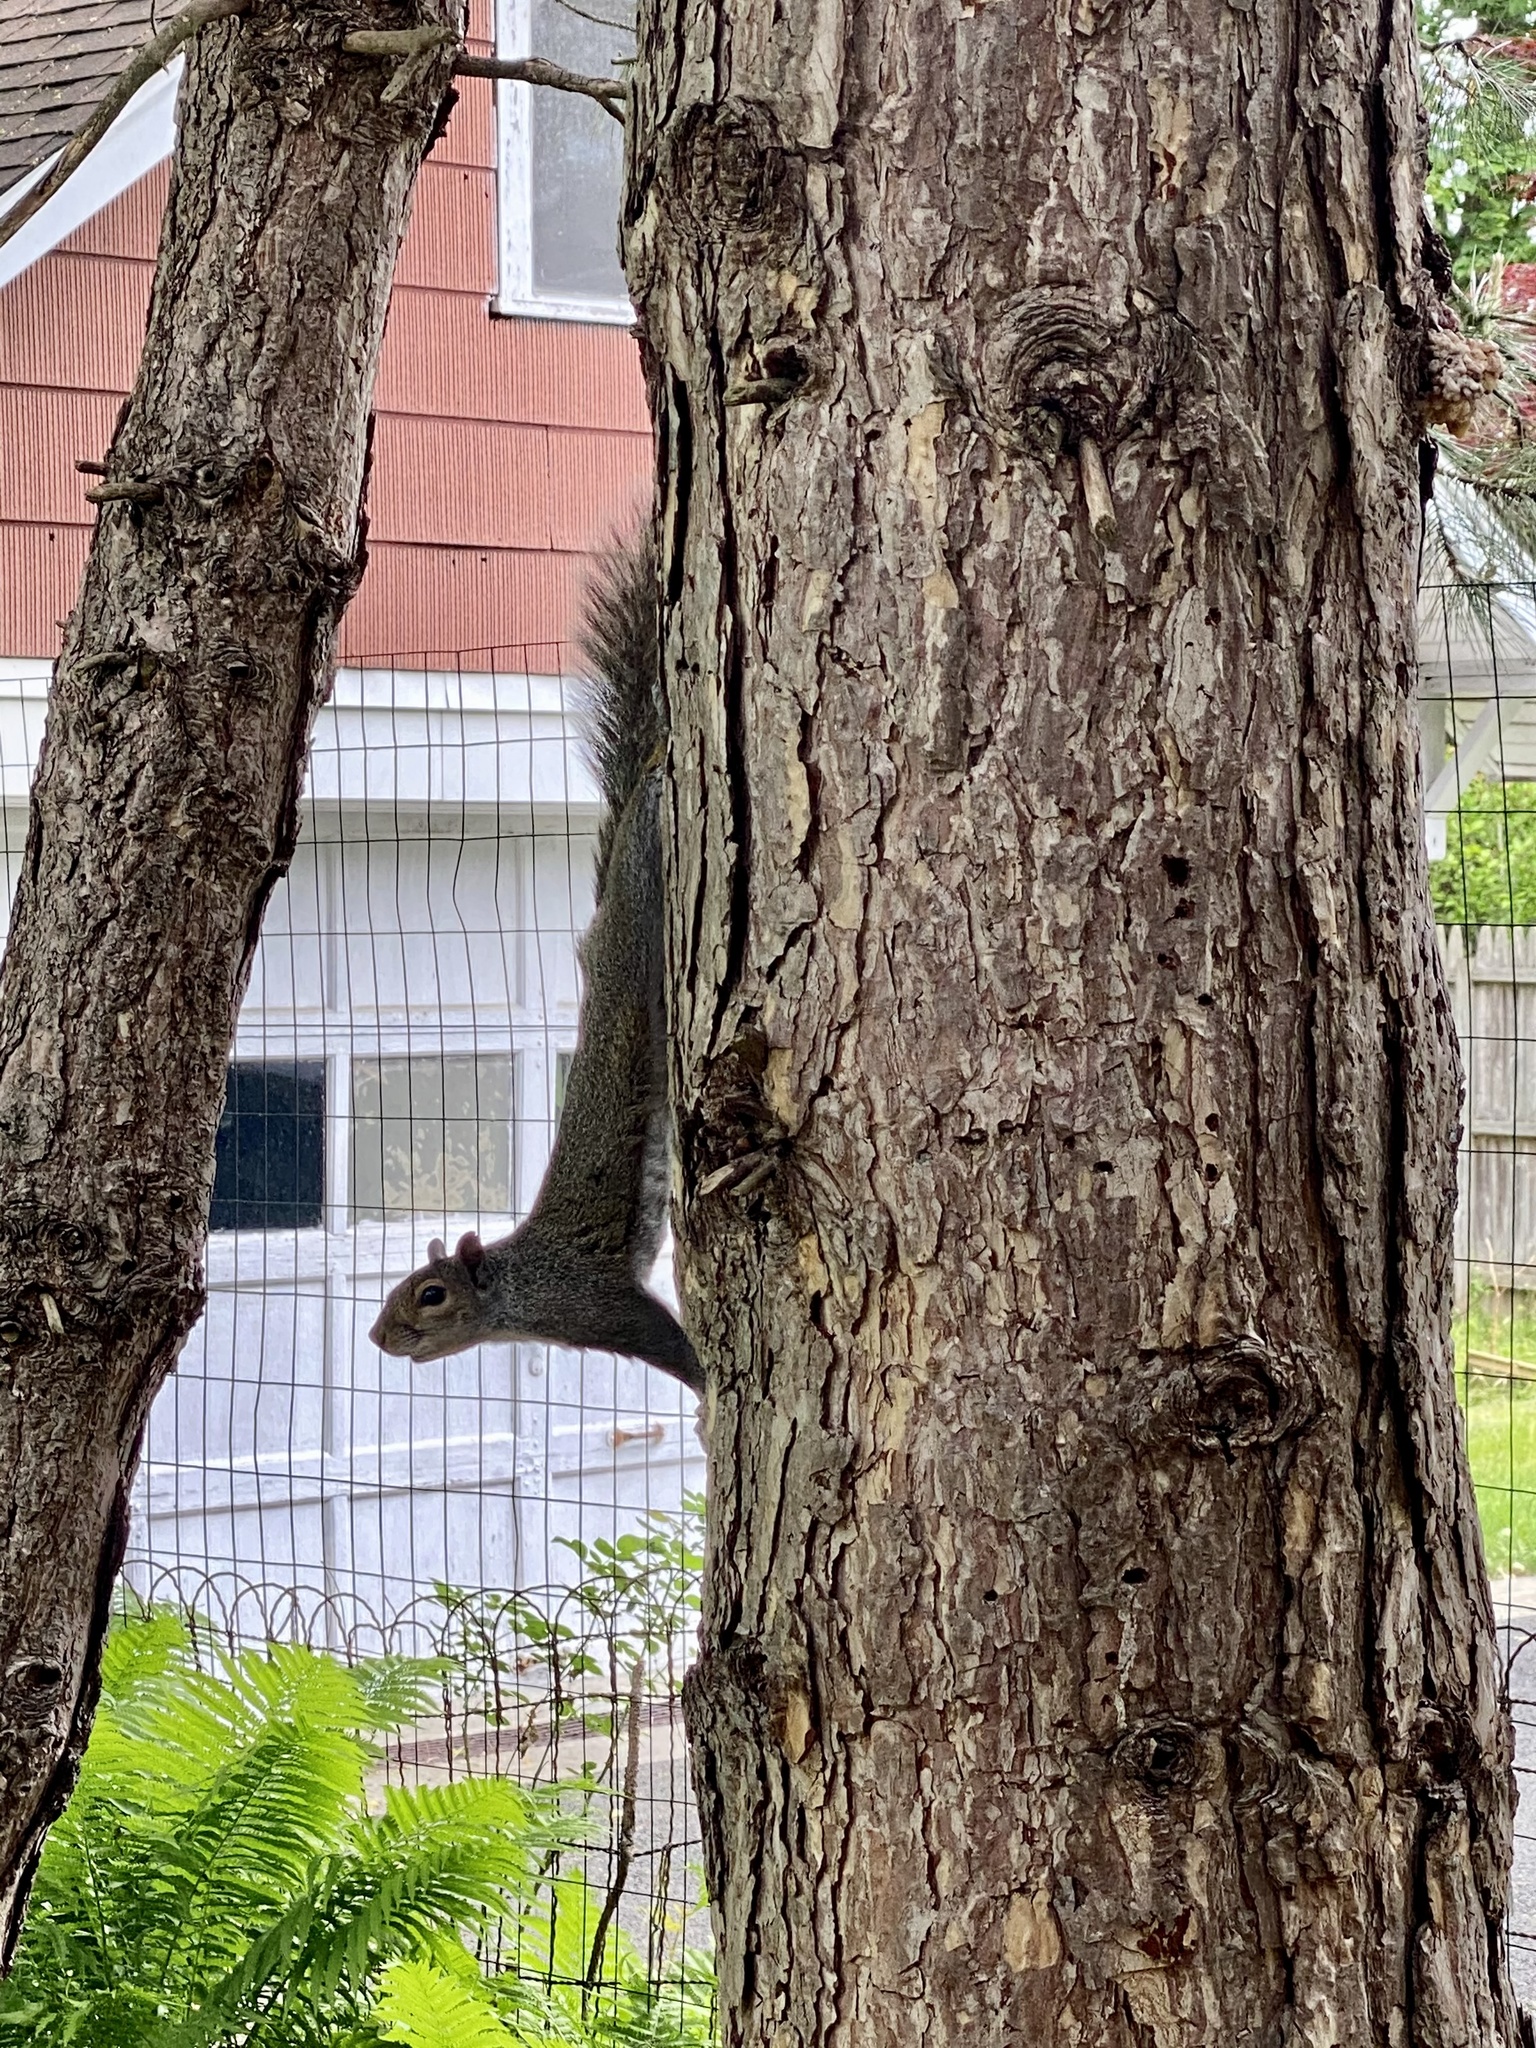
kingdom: Animalia
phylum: Chordata
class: Mammalia
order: Rodentia
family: Sciuridae
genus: Sciurus
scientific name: Sciurus carolinensis
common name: Eastern gray squirrel
